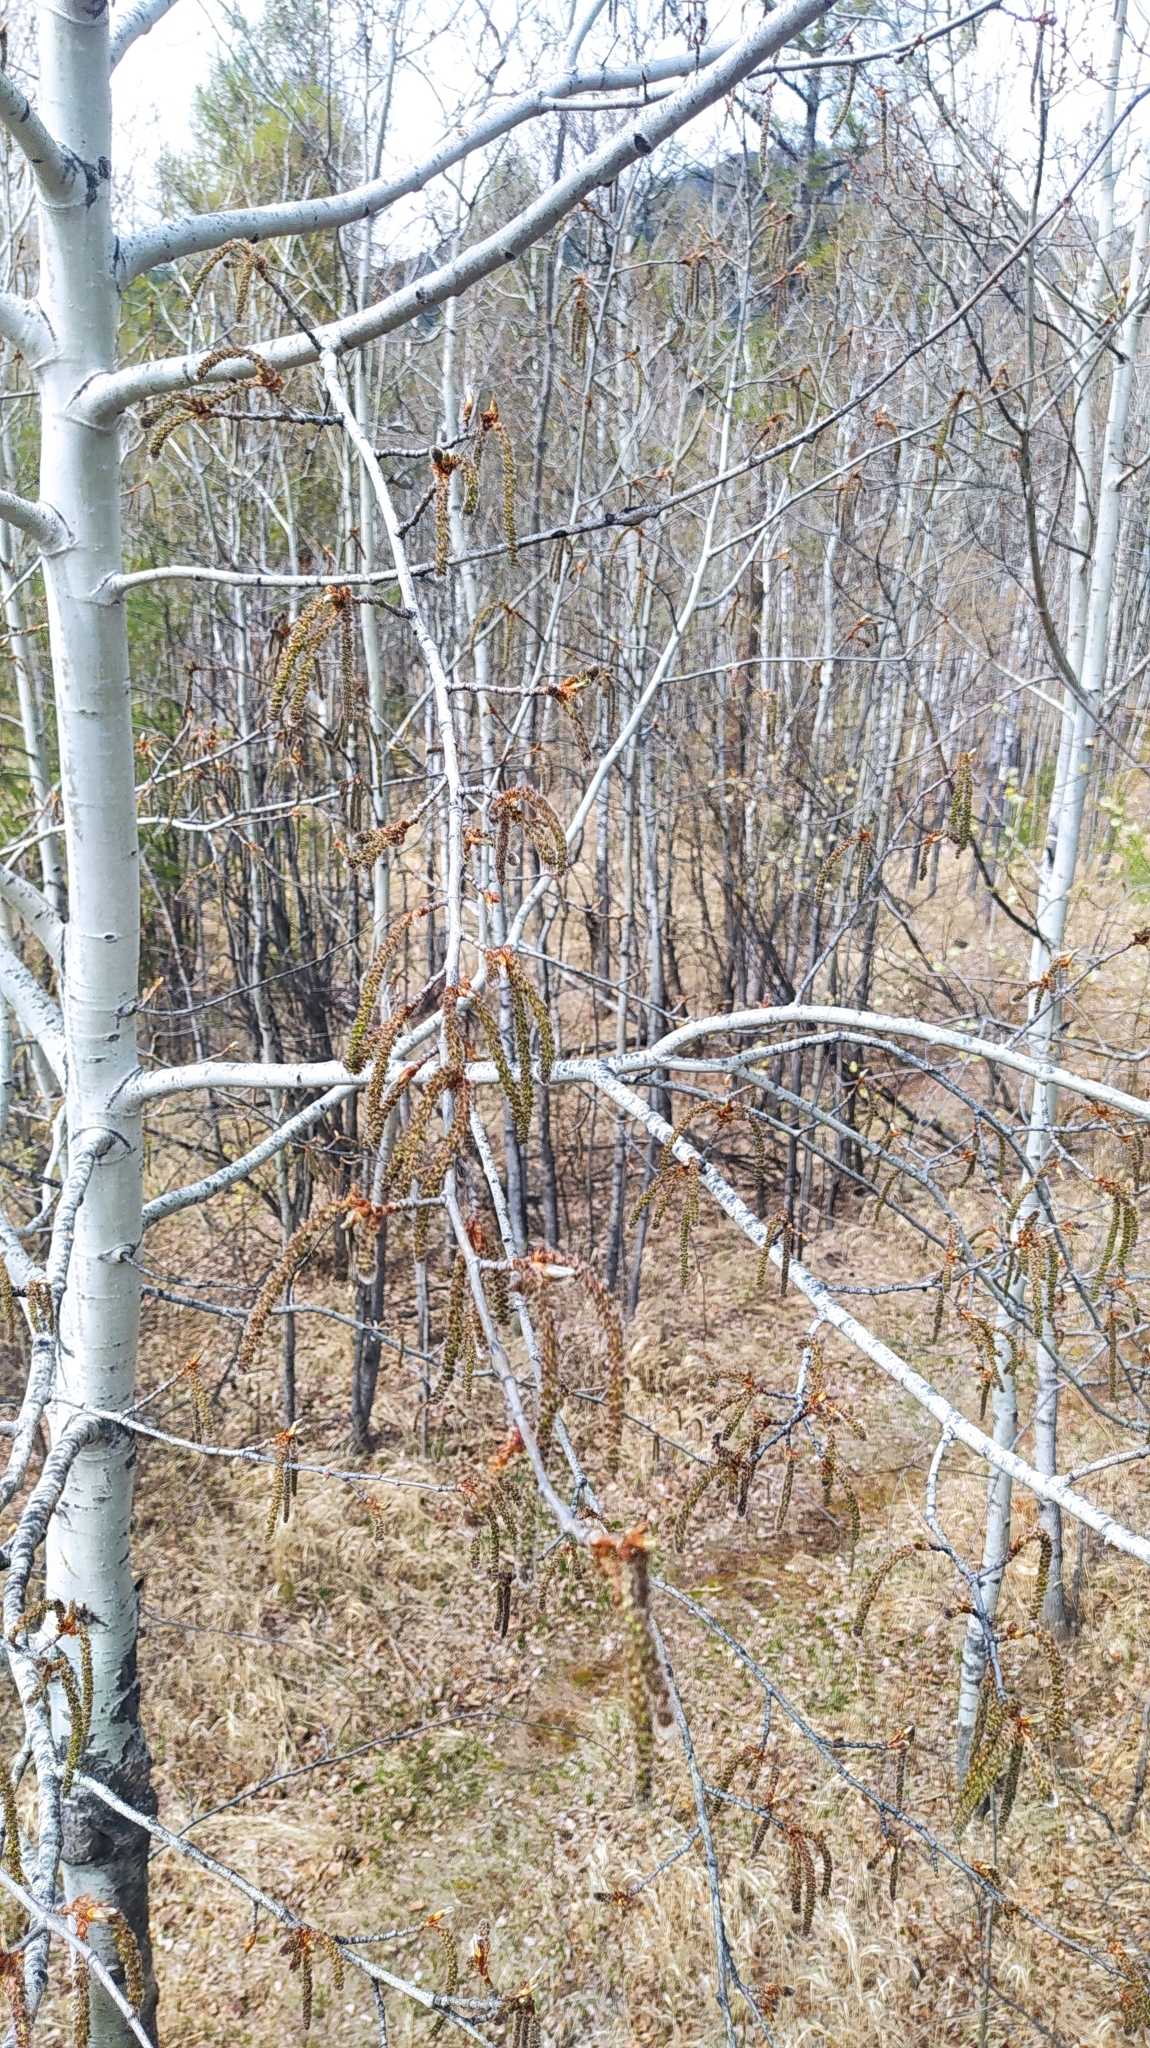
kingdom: Plantae
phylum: Tracheophyta
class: Magnoliopsida
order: Malpighiales
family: Salicaceae
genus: Populus
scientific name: Populus tremula
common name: European aspen
